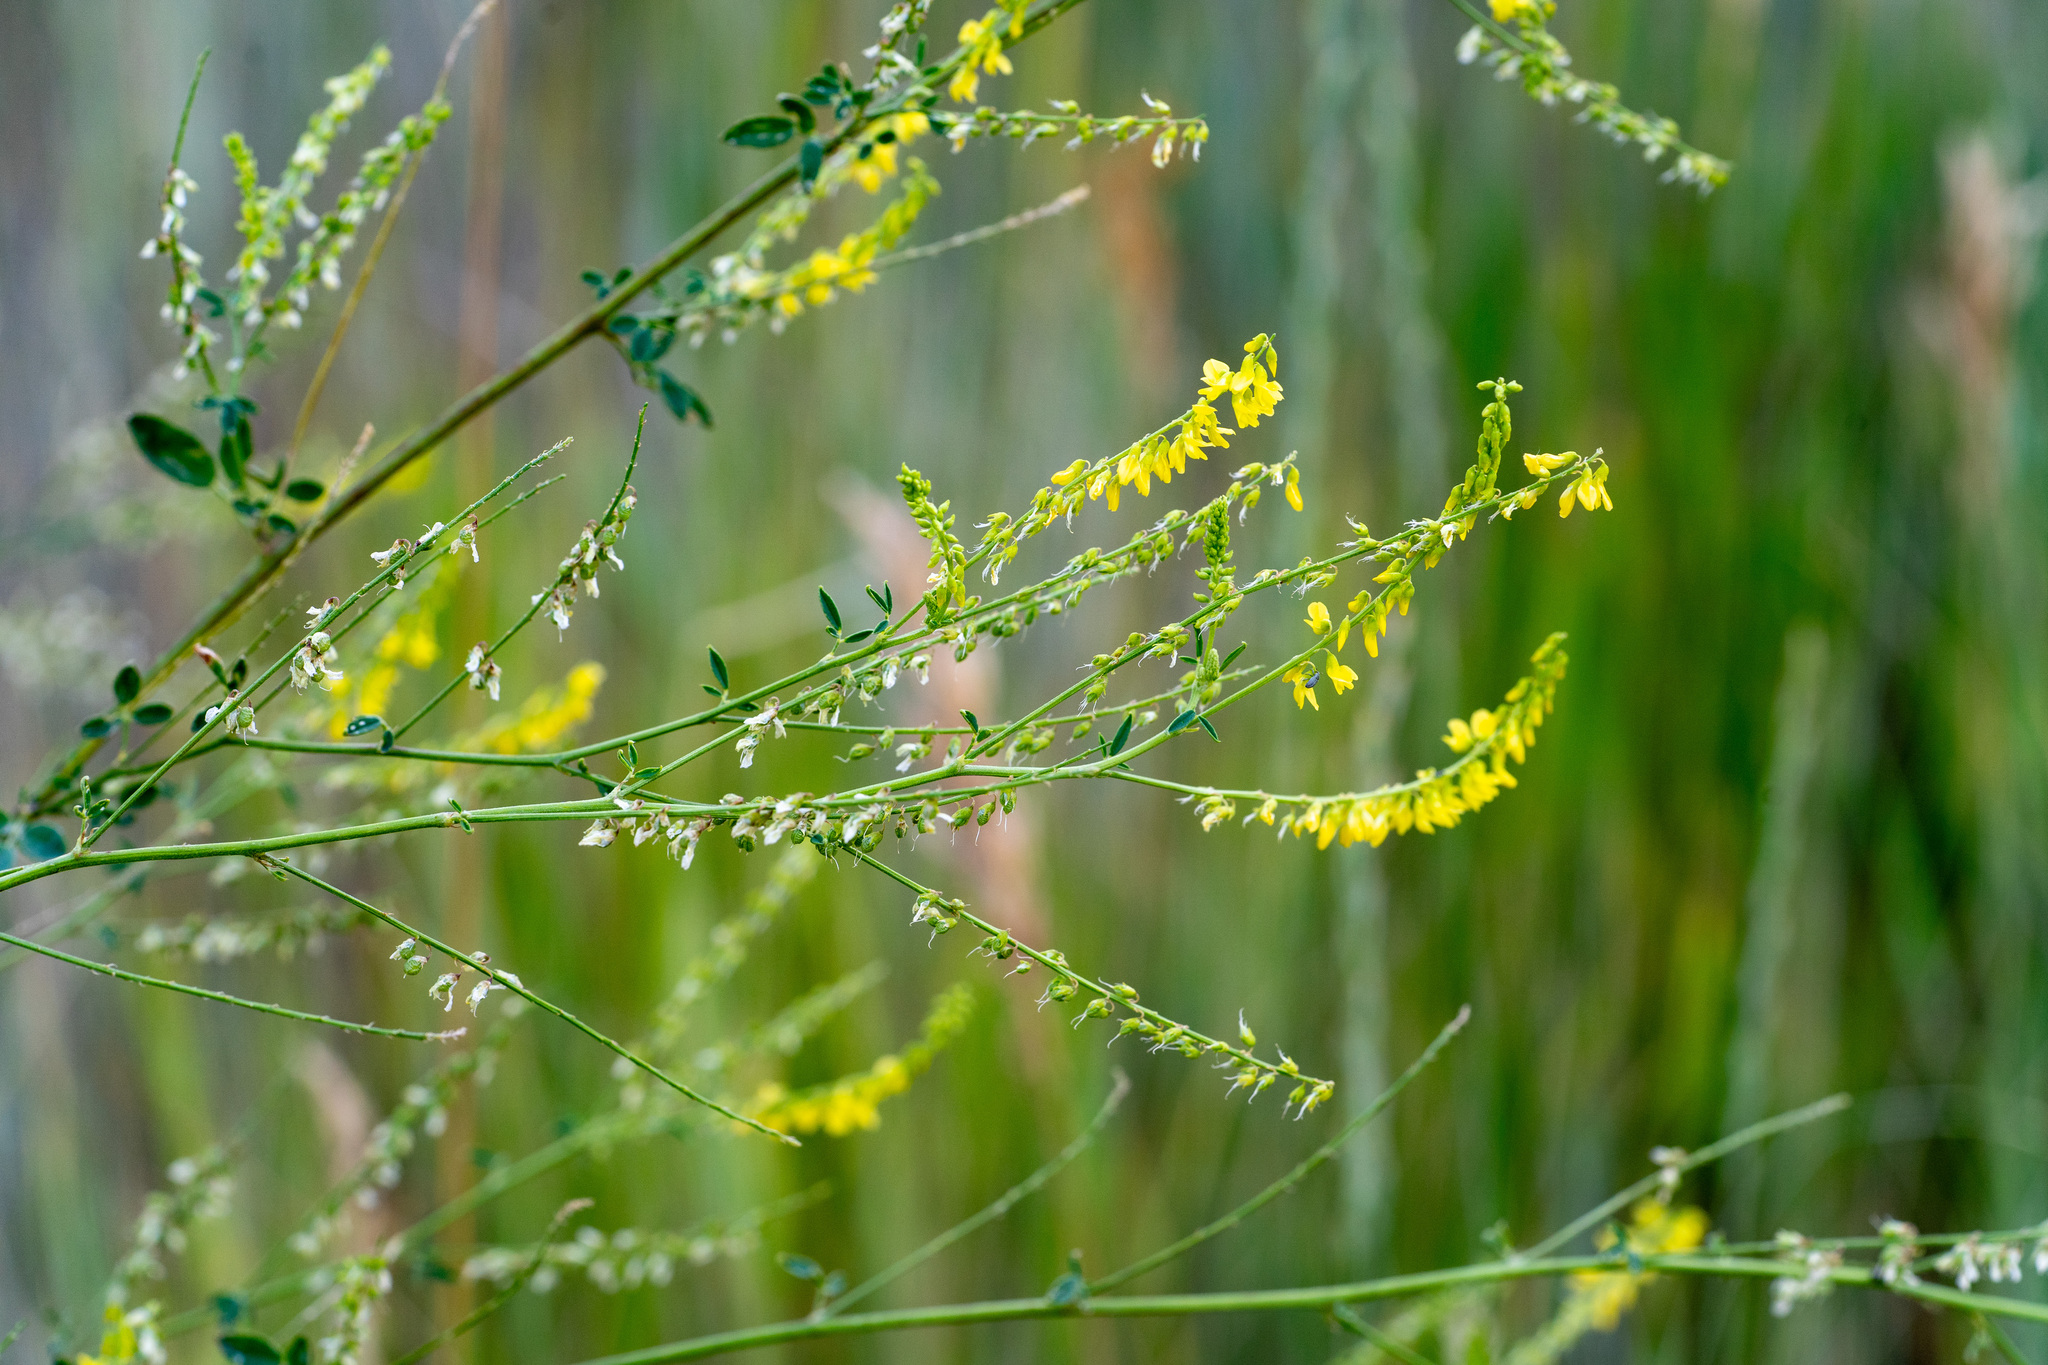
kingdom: Plantae
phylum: Tracheophyta
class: Magnoliopsida
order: Fabales
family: Fabaceae
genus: Melilotus
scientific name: Melilotus officinalis
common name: Sweetclover
